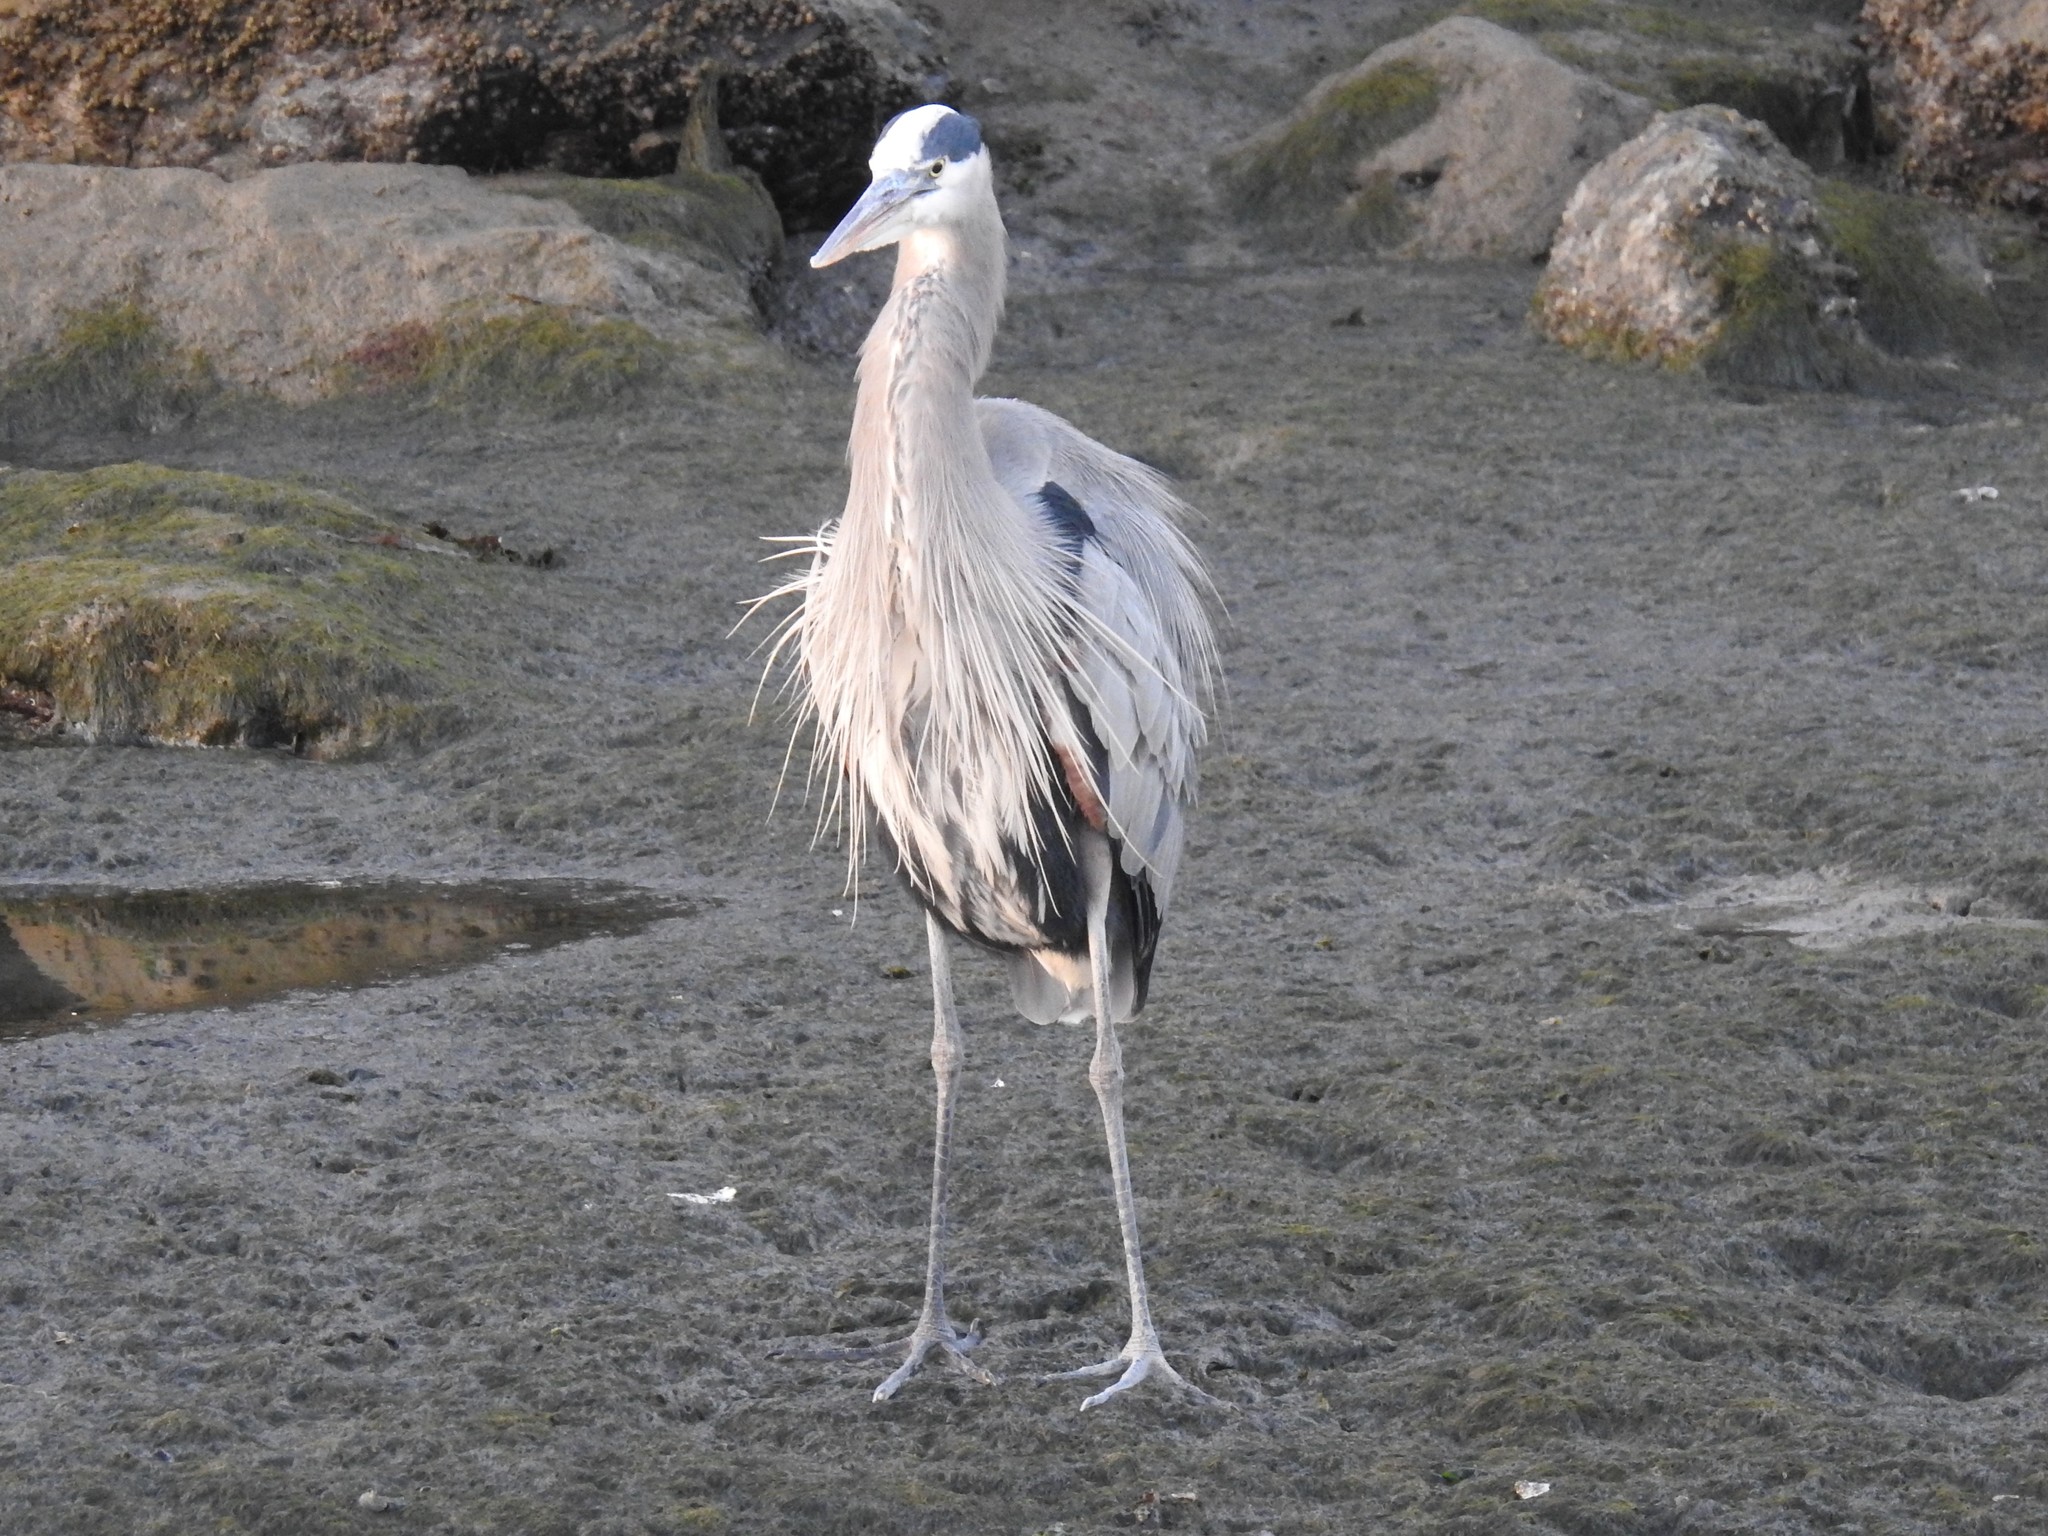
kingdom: Animalia
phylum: Chordata
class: Aves
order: Pelecaniformes
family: Ardeidae
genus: Ardea
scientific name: Ardea herodias
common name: Great blue heron
